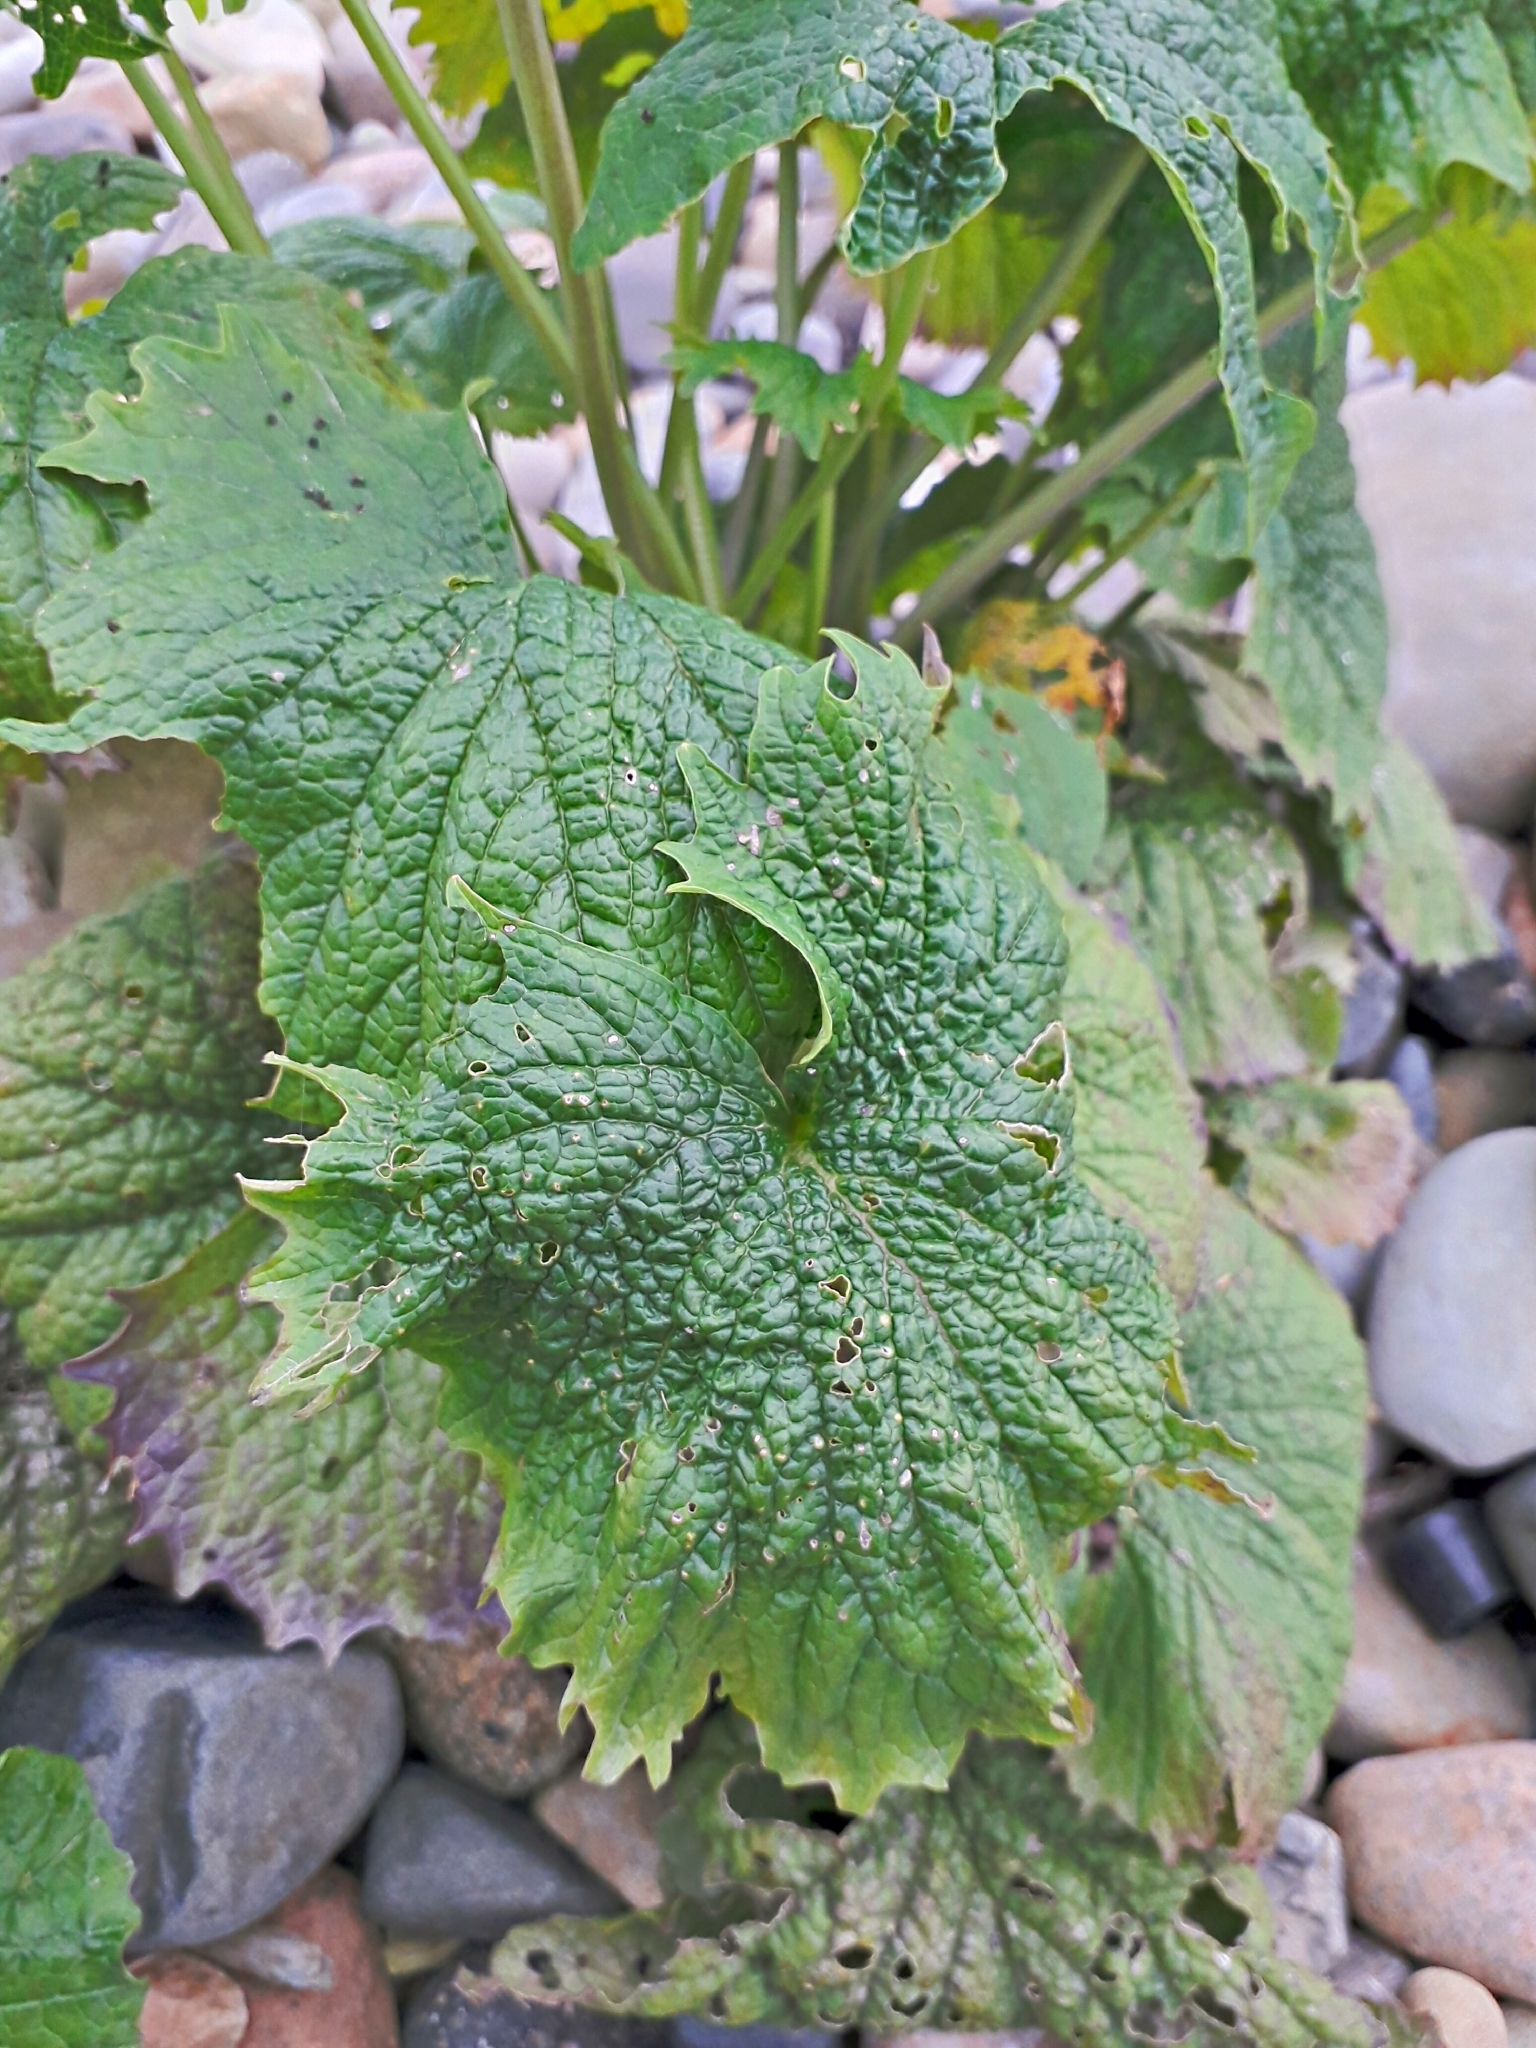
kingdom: Plantae
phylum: Tracheophyta
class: Magnoliopsida
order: Brassicales
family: Brassicaceae
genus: Alliaria
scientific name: Alliaria petiolata
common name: Garlic mustard
